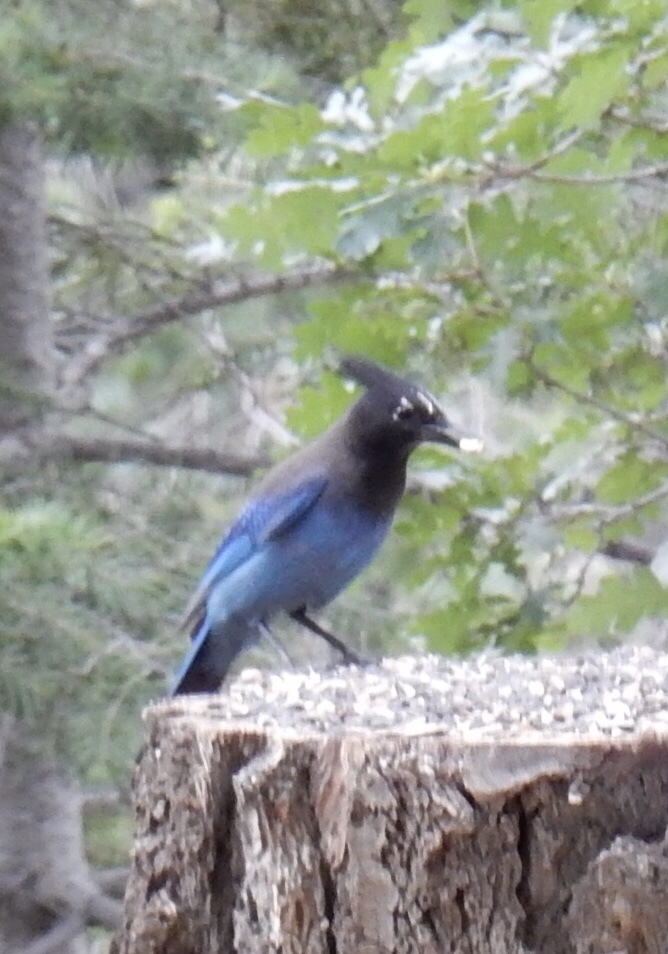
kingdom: Animalia
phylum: Chordata
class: Aves
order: Passeriformes
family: Corvidae
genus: Cyanocitta
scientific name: Cyanocitta stelleri
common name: Steller's jay
